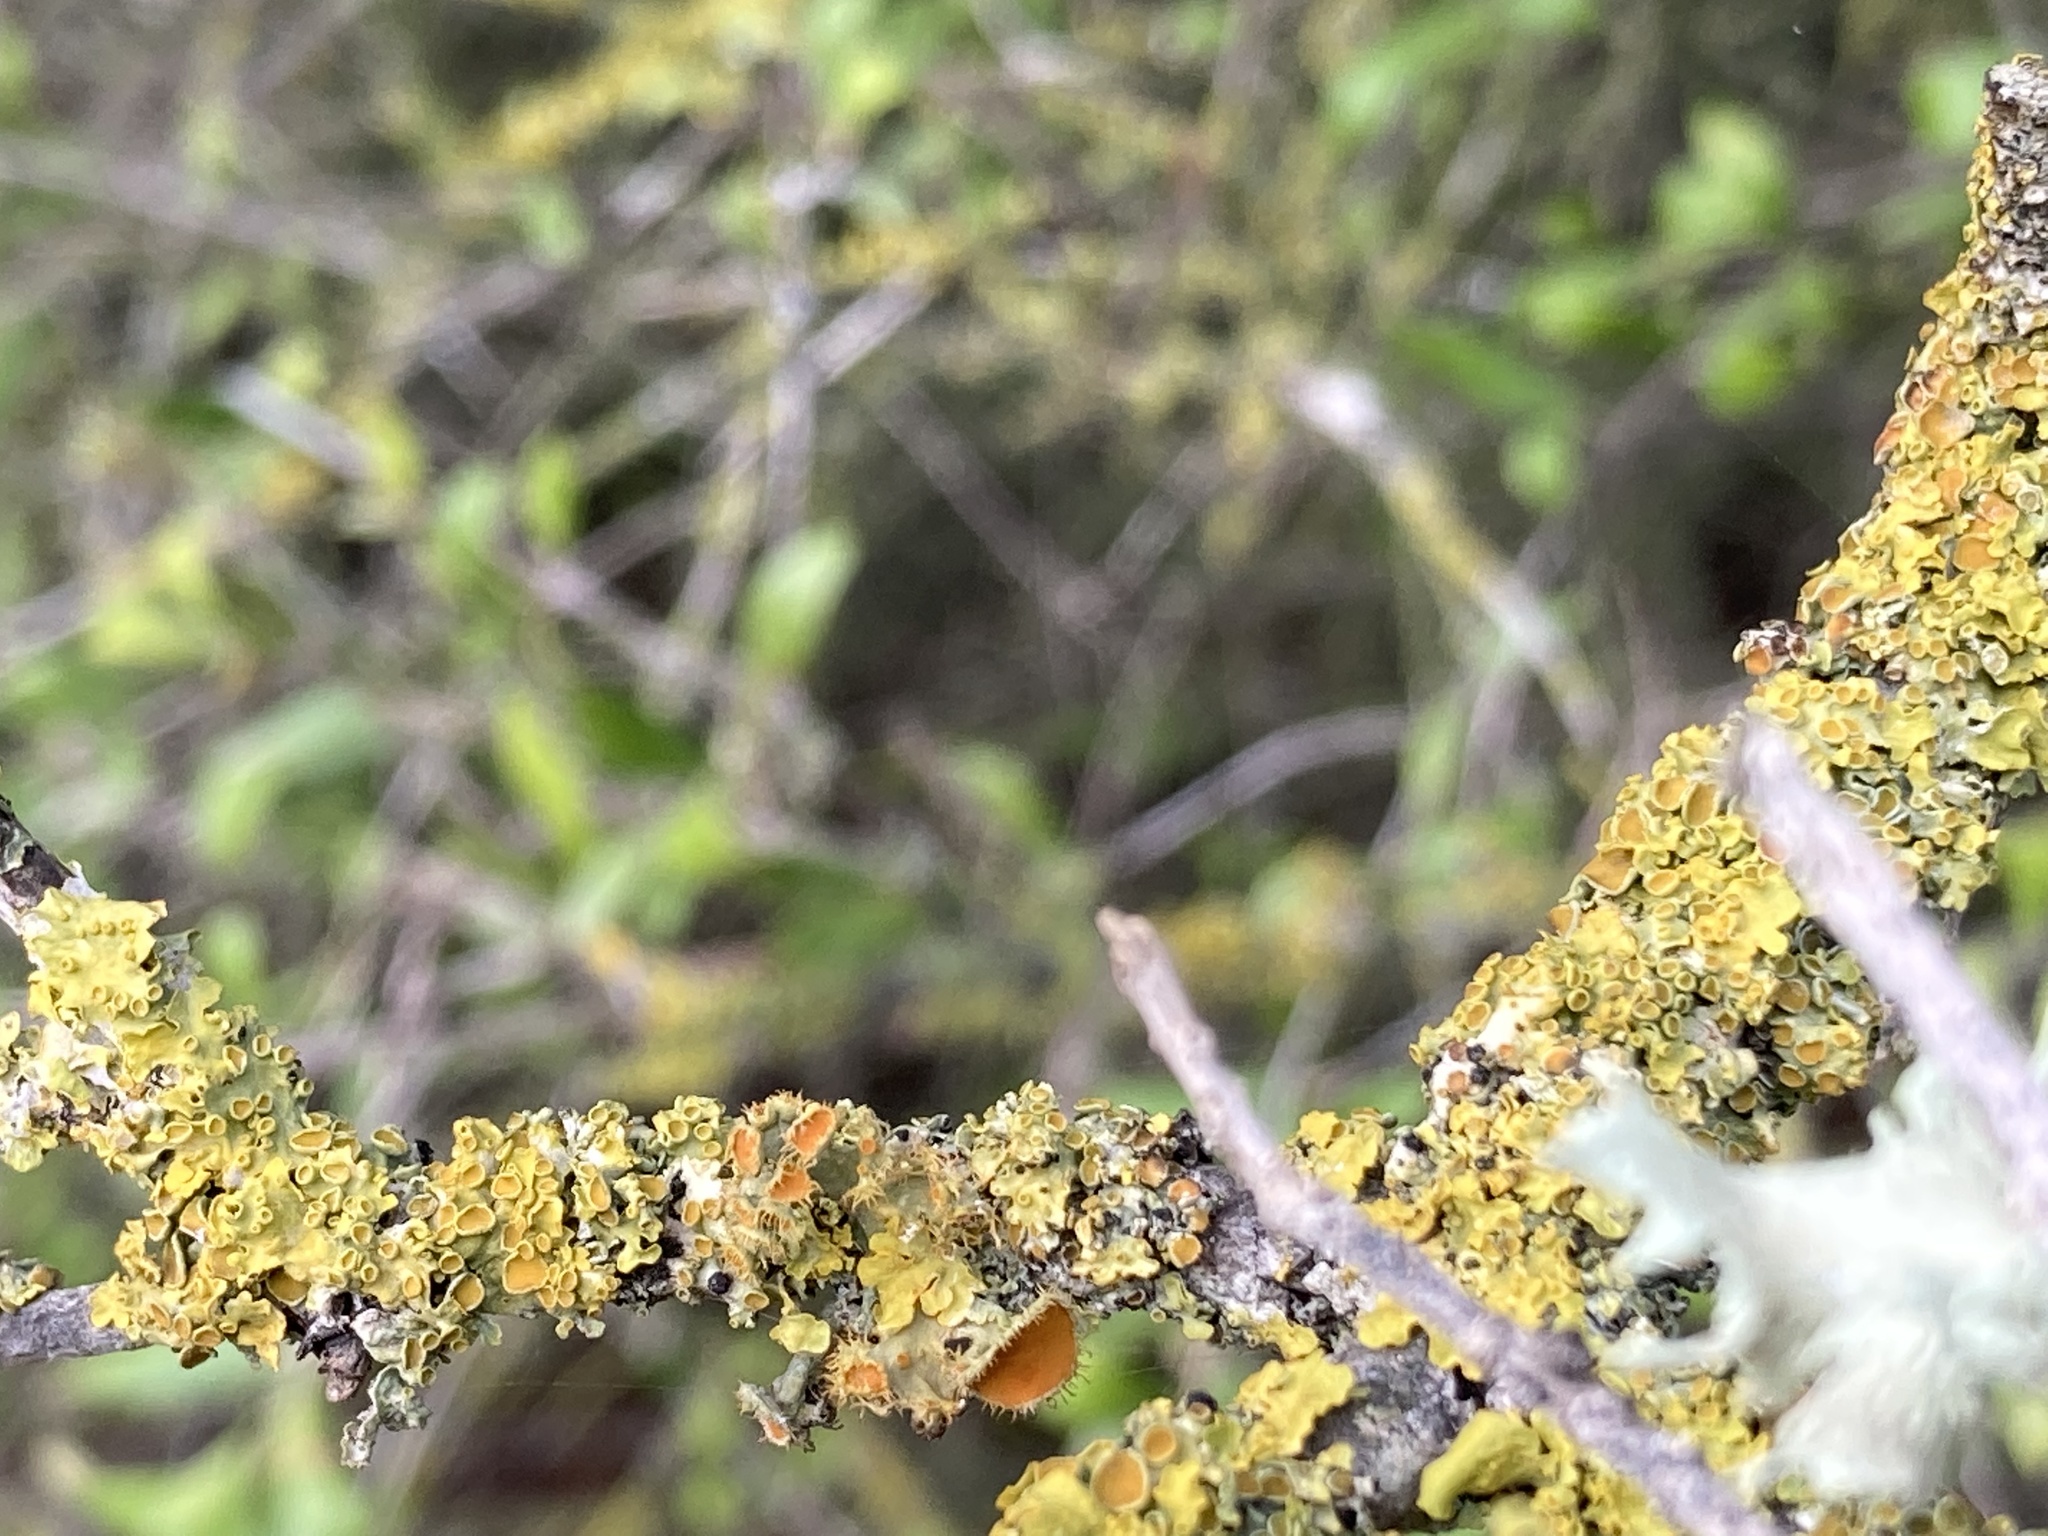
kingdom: Fungi
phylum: Ascomycota
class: Lecanoromycetes
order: Teloschistales
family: Teloschistaceae
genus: Niorma
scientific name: Niorma chrysophthalma
